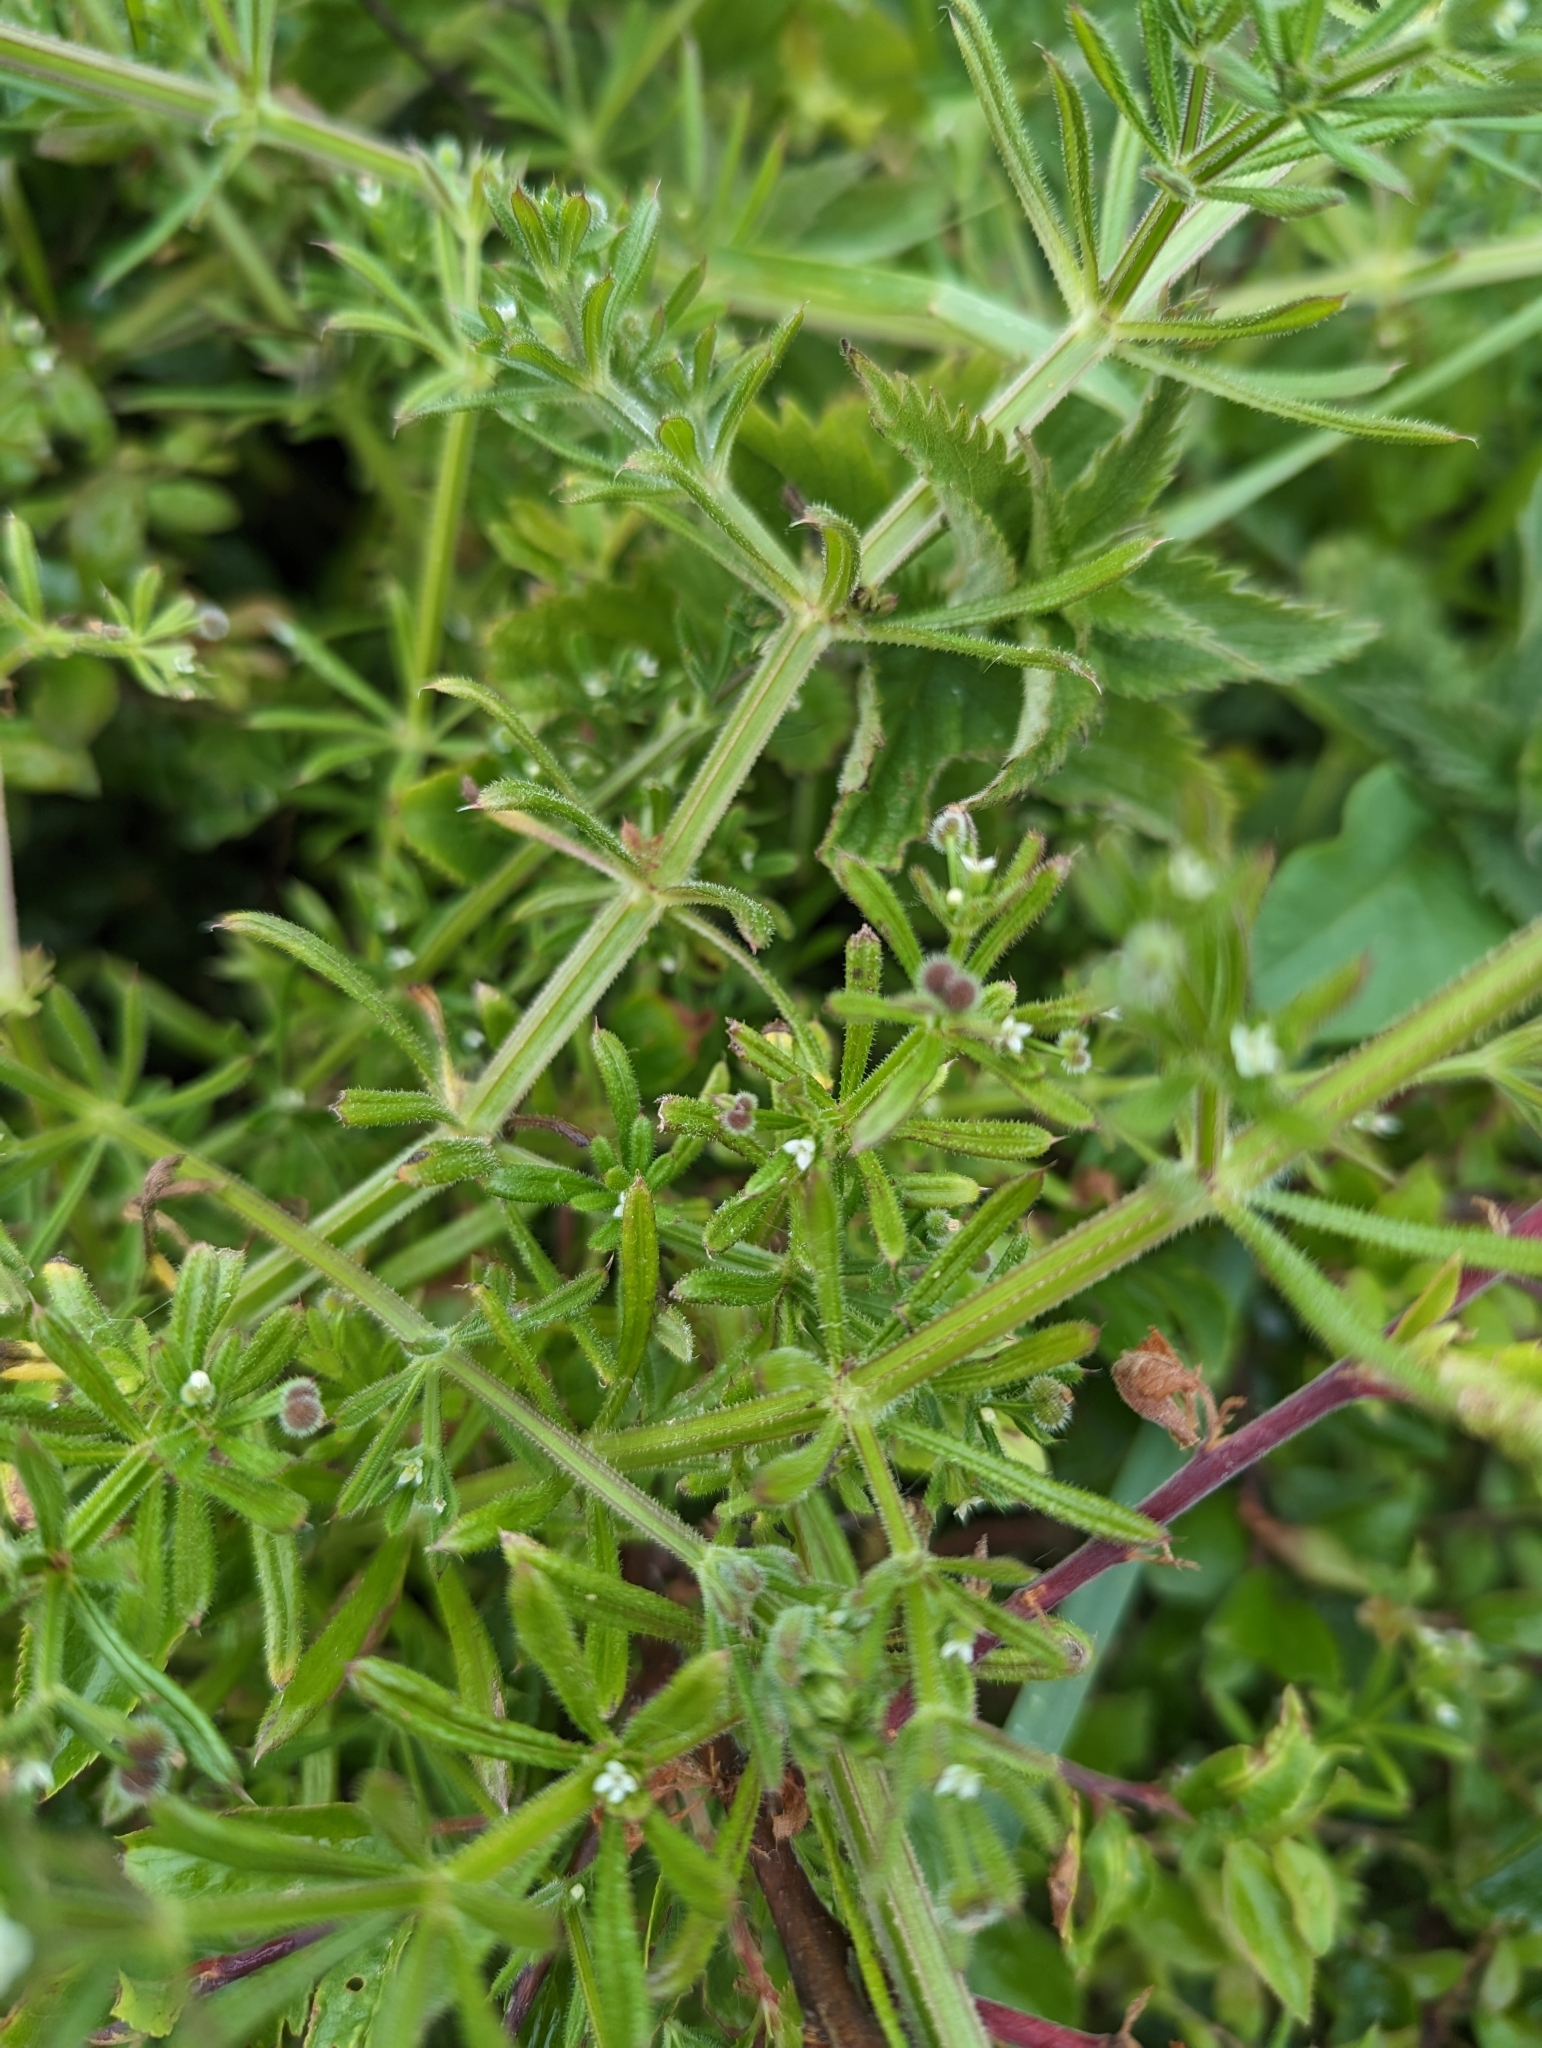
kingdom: Plantae
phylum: Tracheophyta
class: Magnoliopsida
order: Gentianales
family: Rubiaceae
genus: Galium
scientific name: Galium aparine
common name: Cleavers
